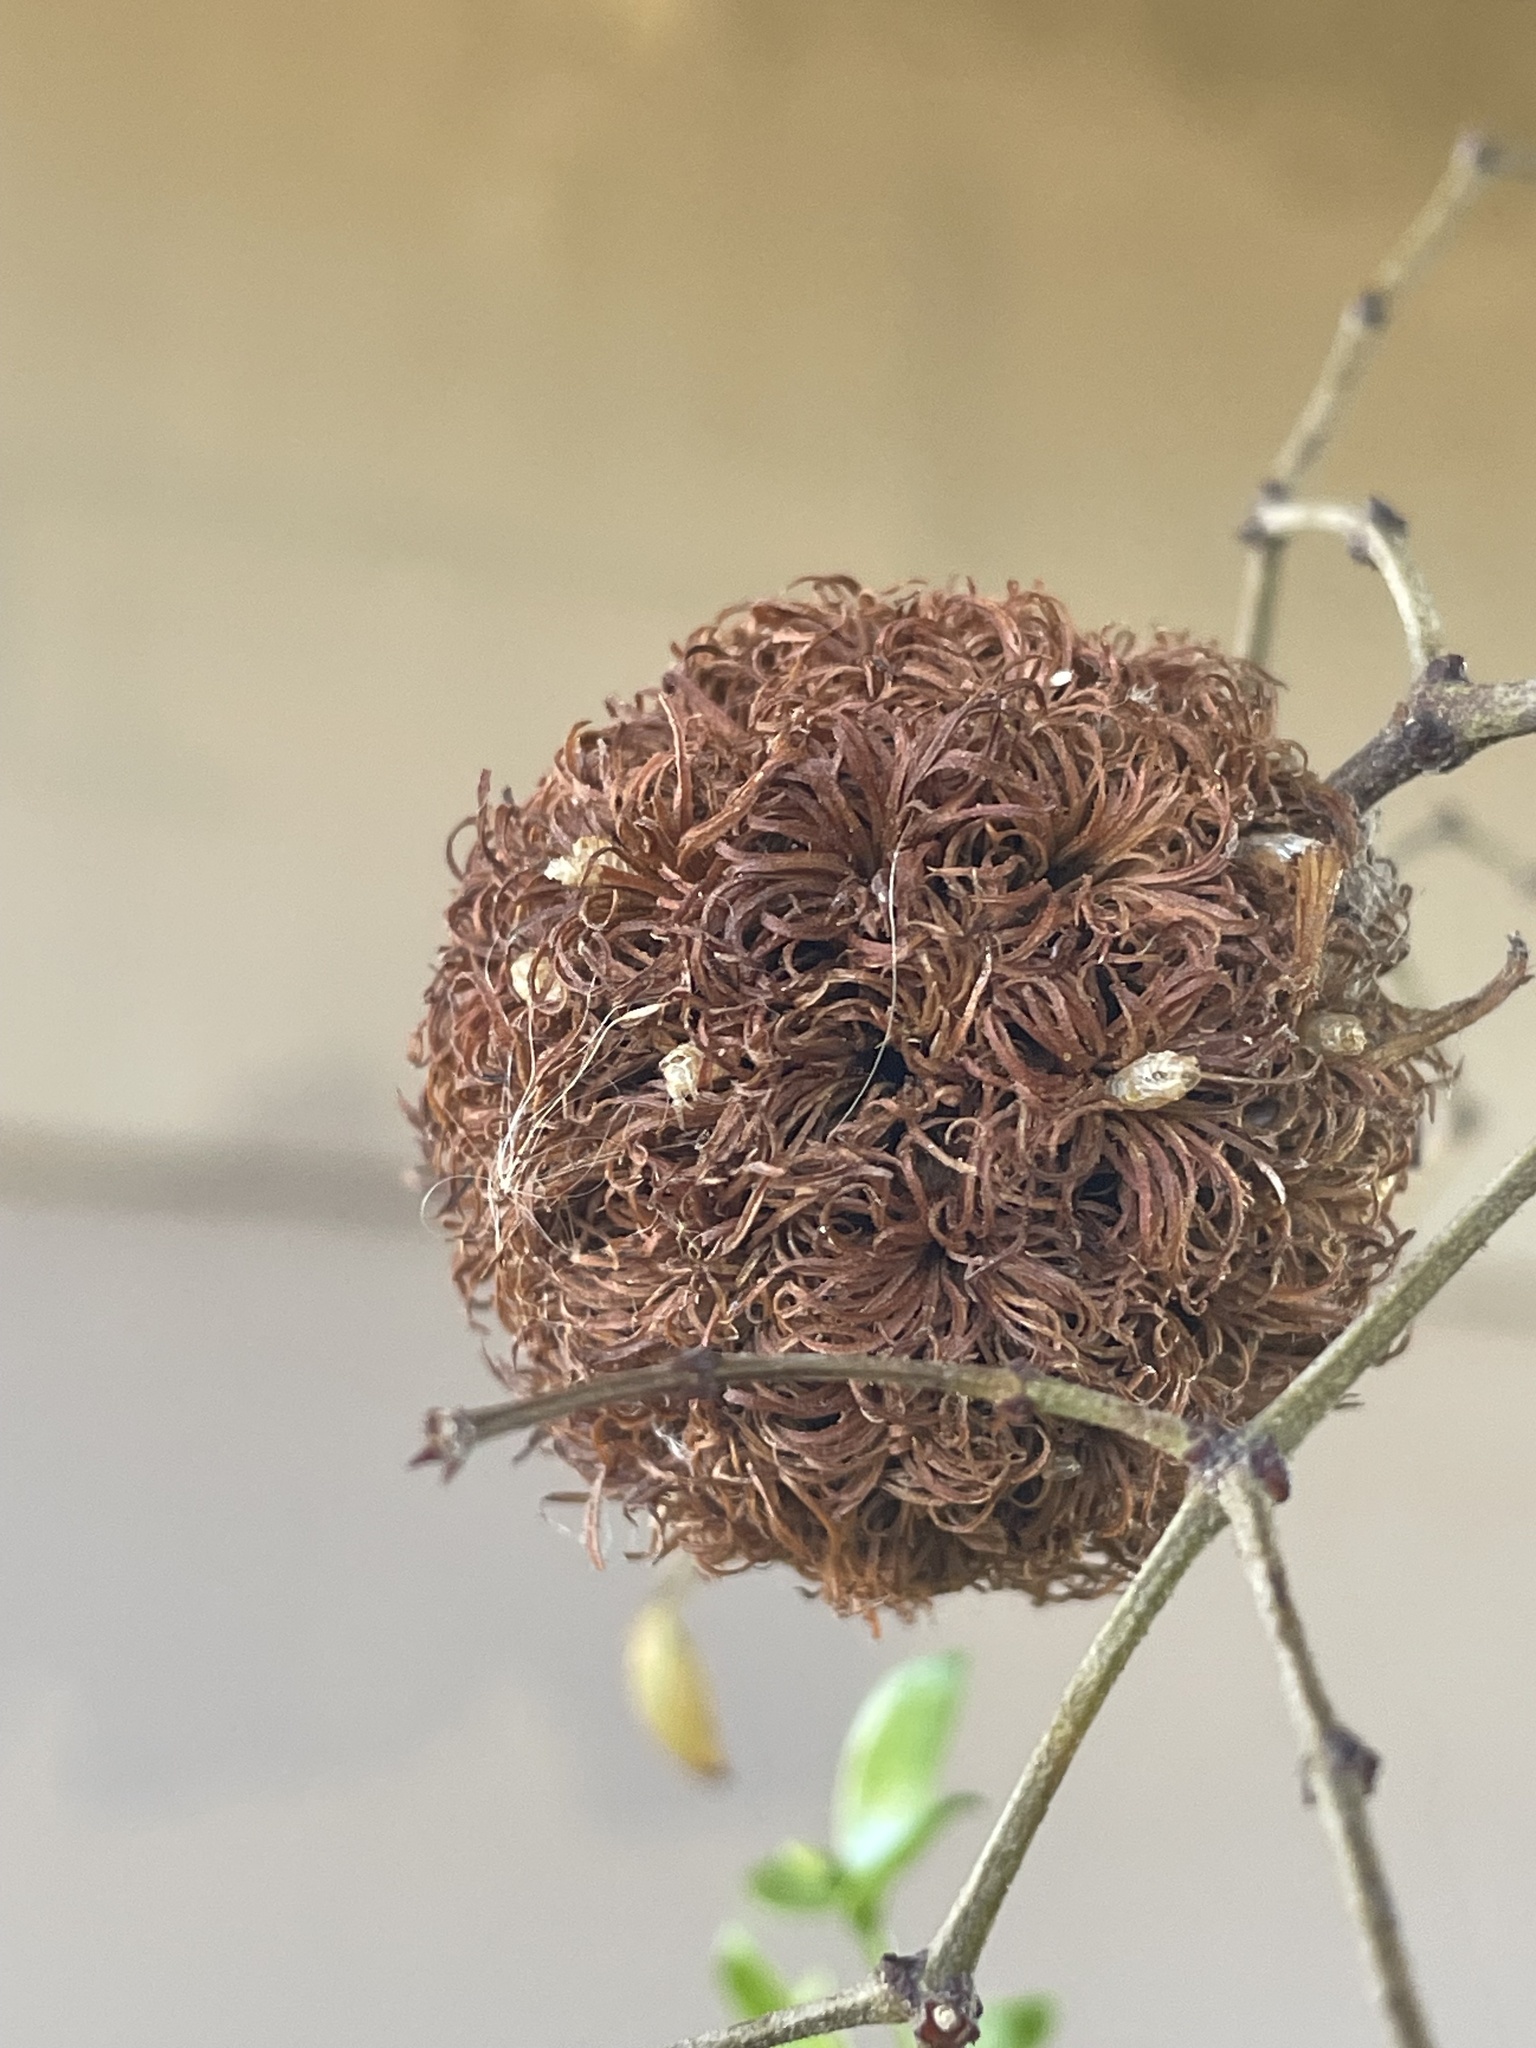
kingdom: Animalia
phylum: Arthropoda
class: Insecta
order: Diptera
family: Cecidomyiidae
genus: Asphondylia
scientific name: Asphondylia auripila
